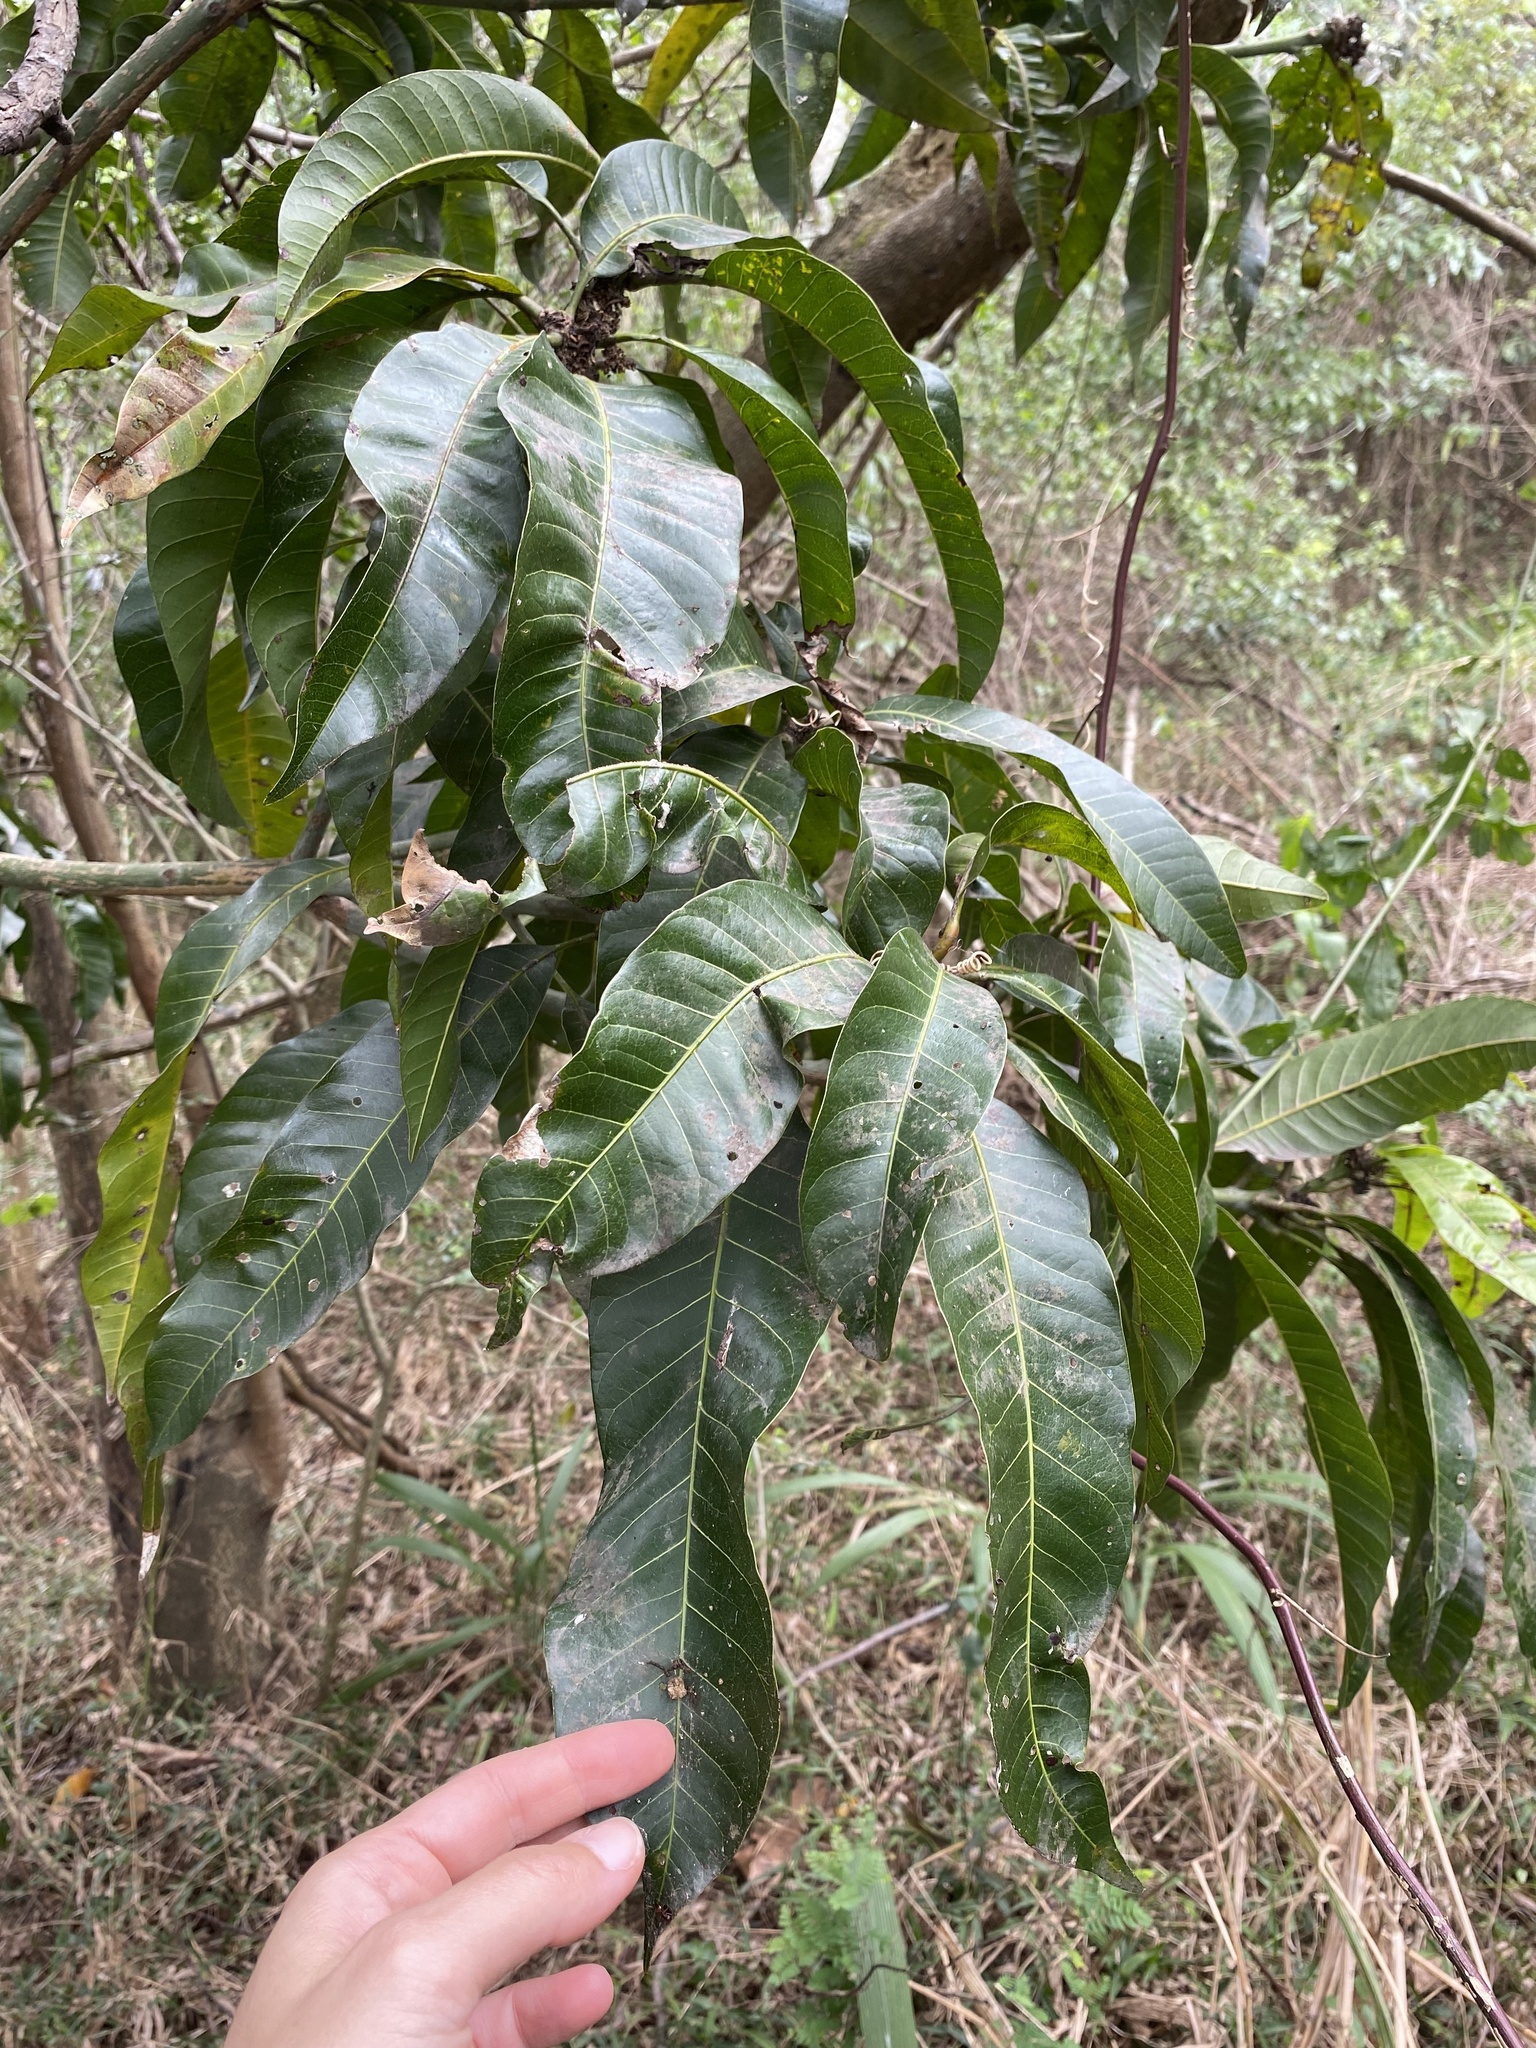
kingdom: Plantae
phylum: Tracheophyta
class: Magnoliopsida
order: Sapindales
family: Anacardiaceae
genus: Mangifera
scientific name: Mangifera indica
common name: Mango
